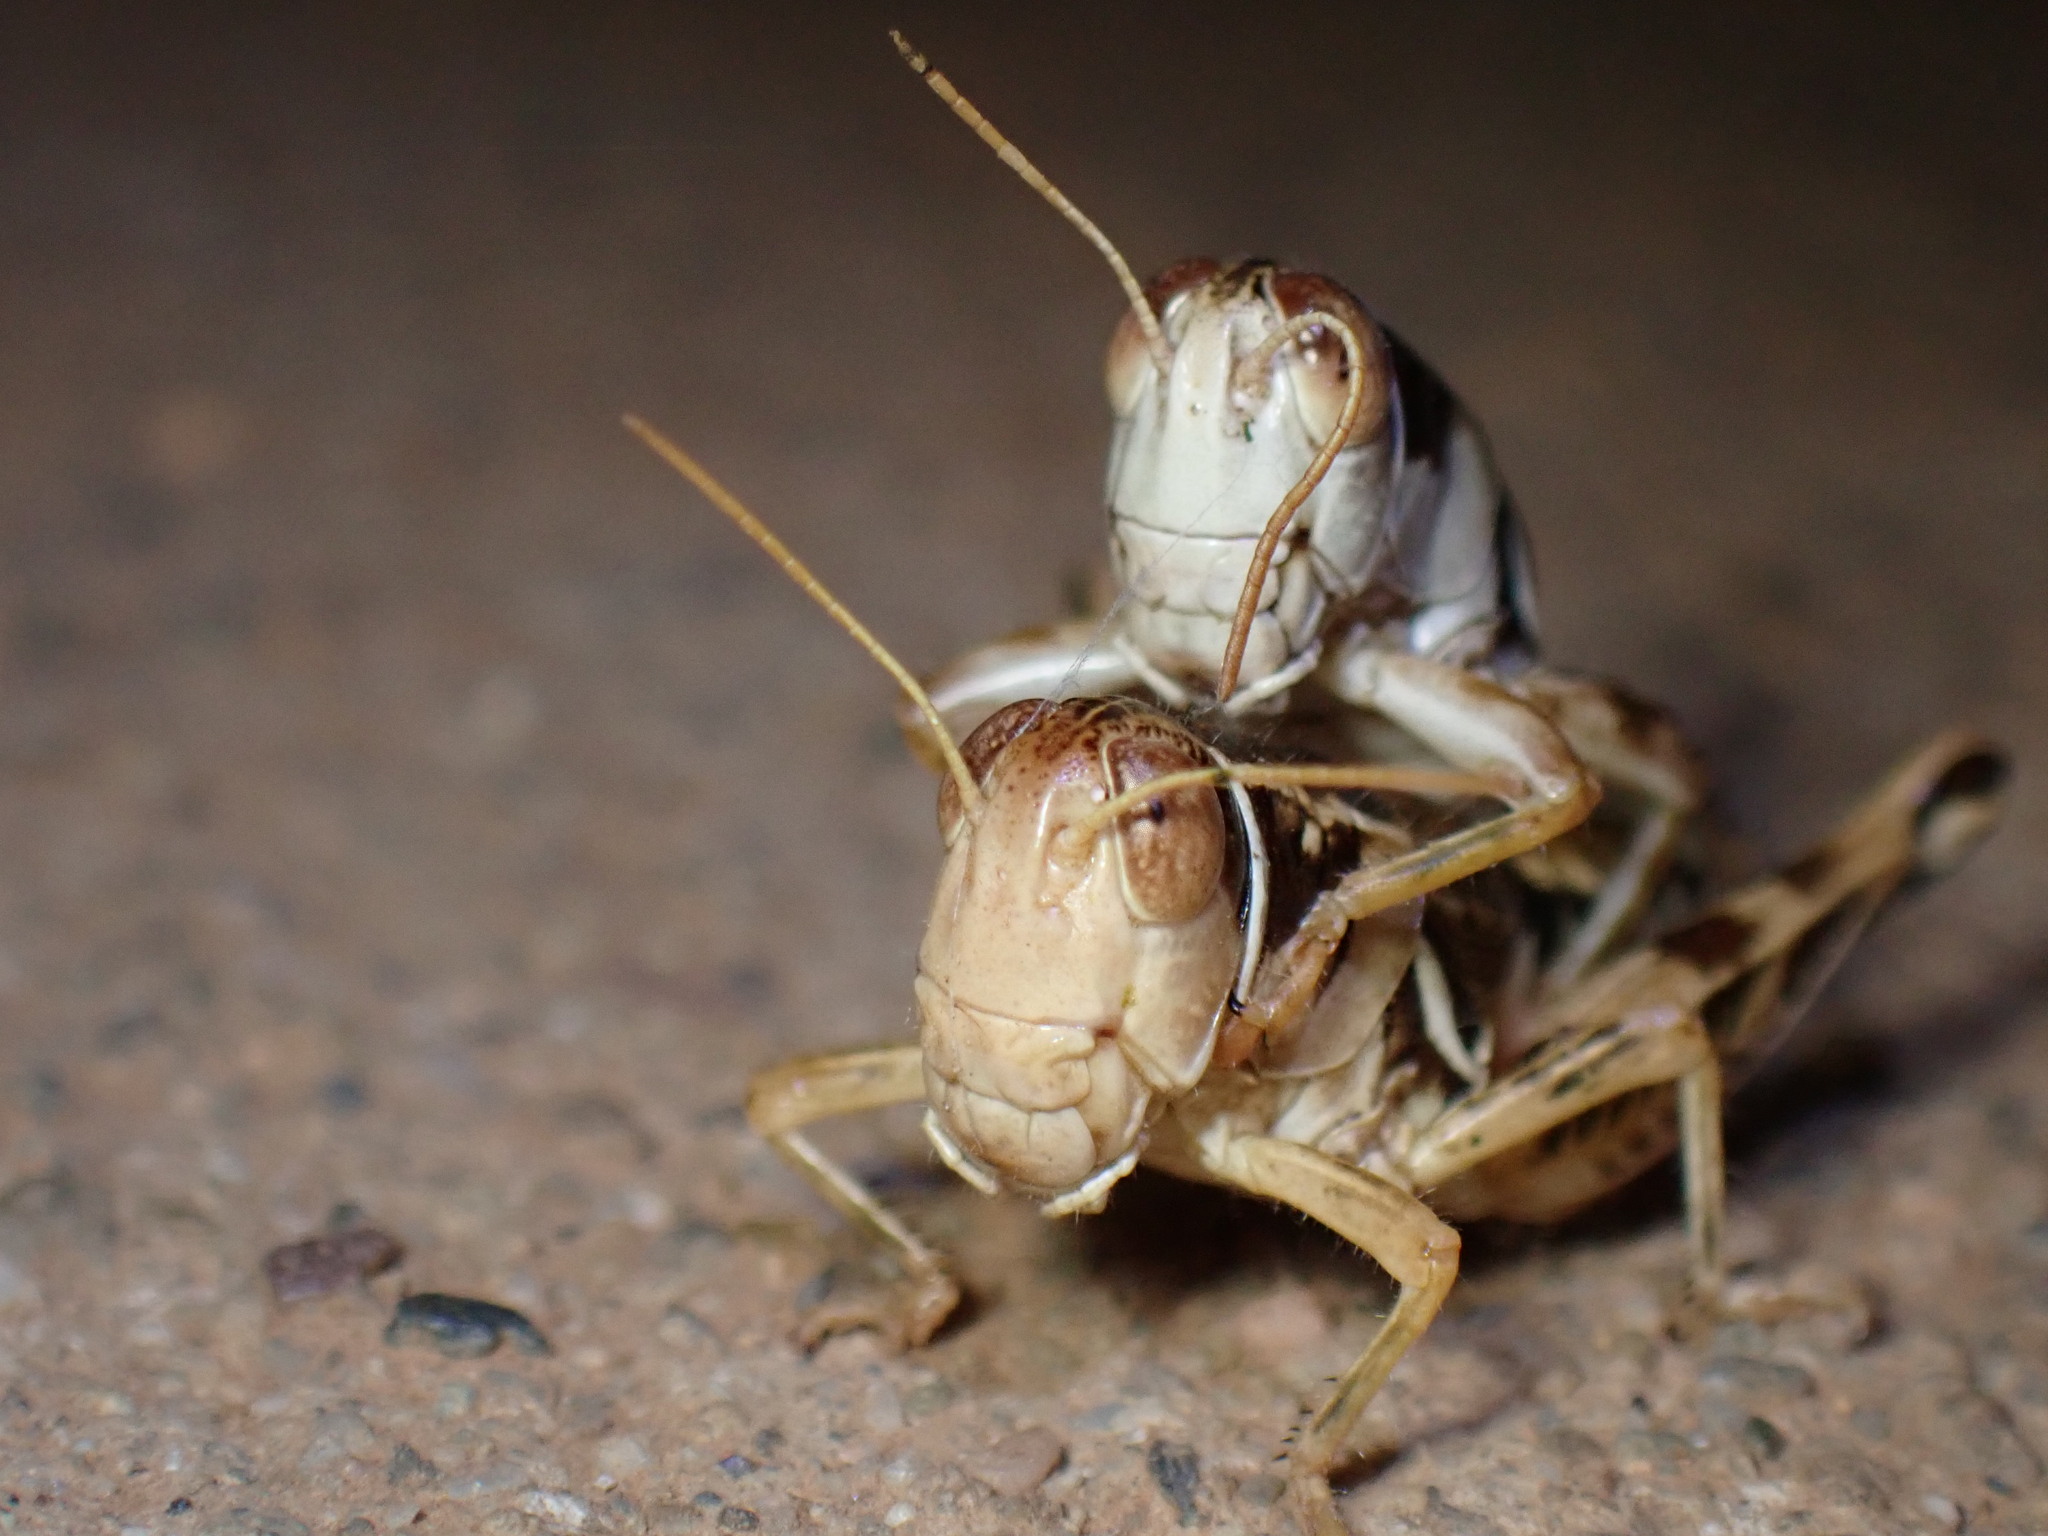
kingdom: Animalia
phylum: Arthropoda
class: Insecta
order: Orthoptera
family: Acrididae
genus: Oedaleonotus
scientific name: Oedaleonotus enigma
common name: Valley grasshopper
